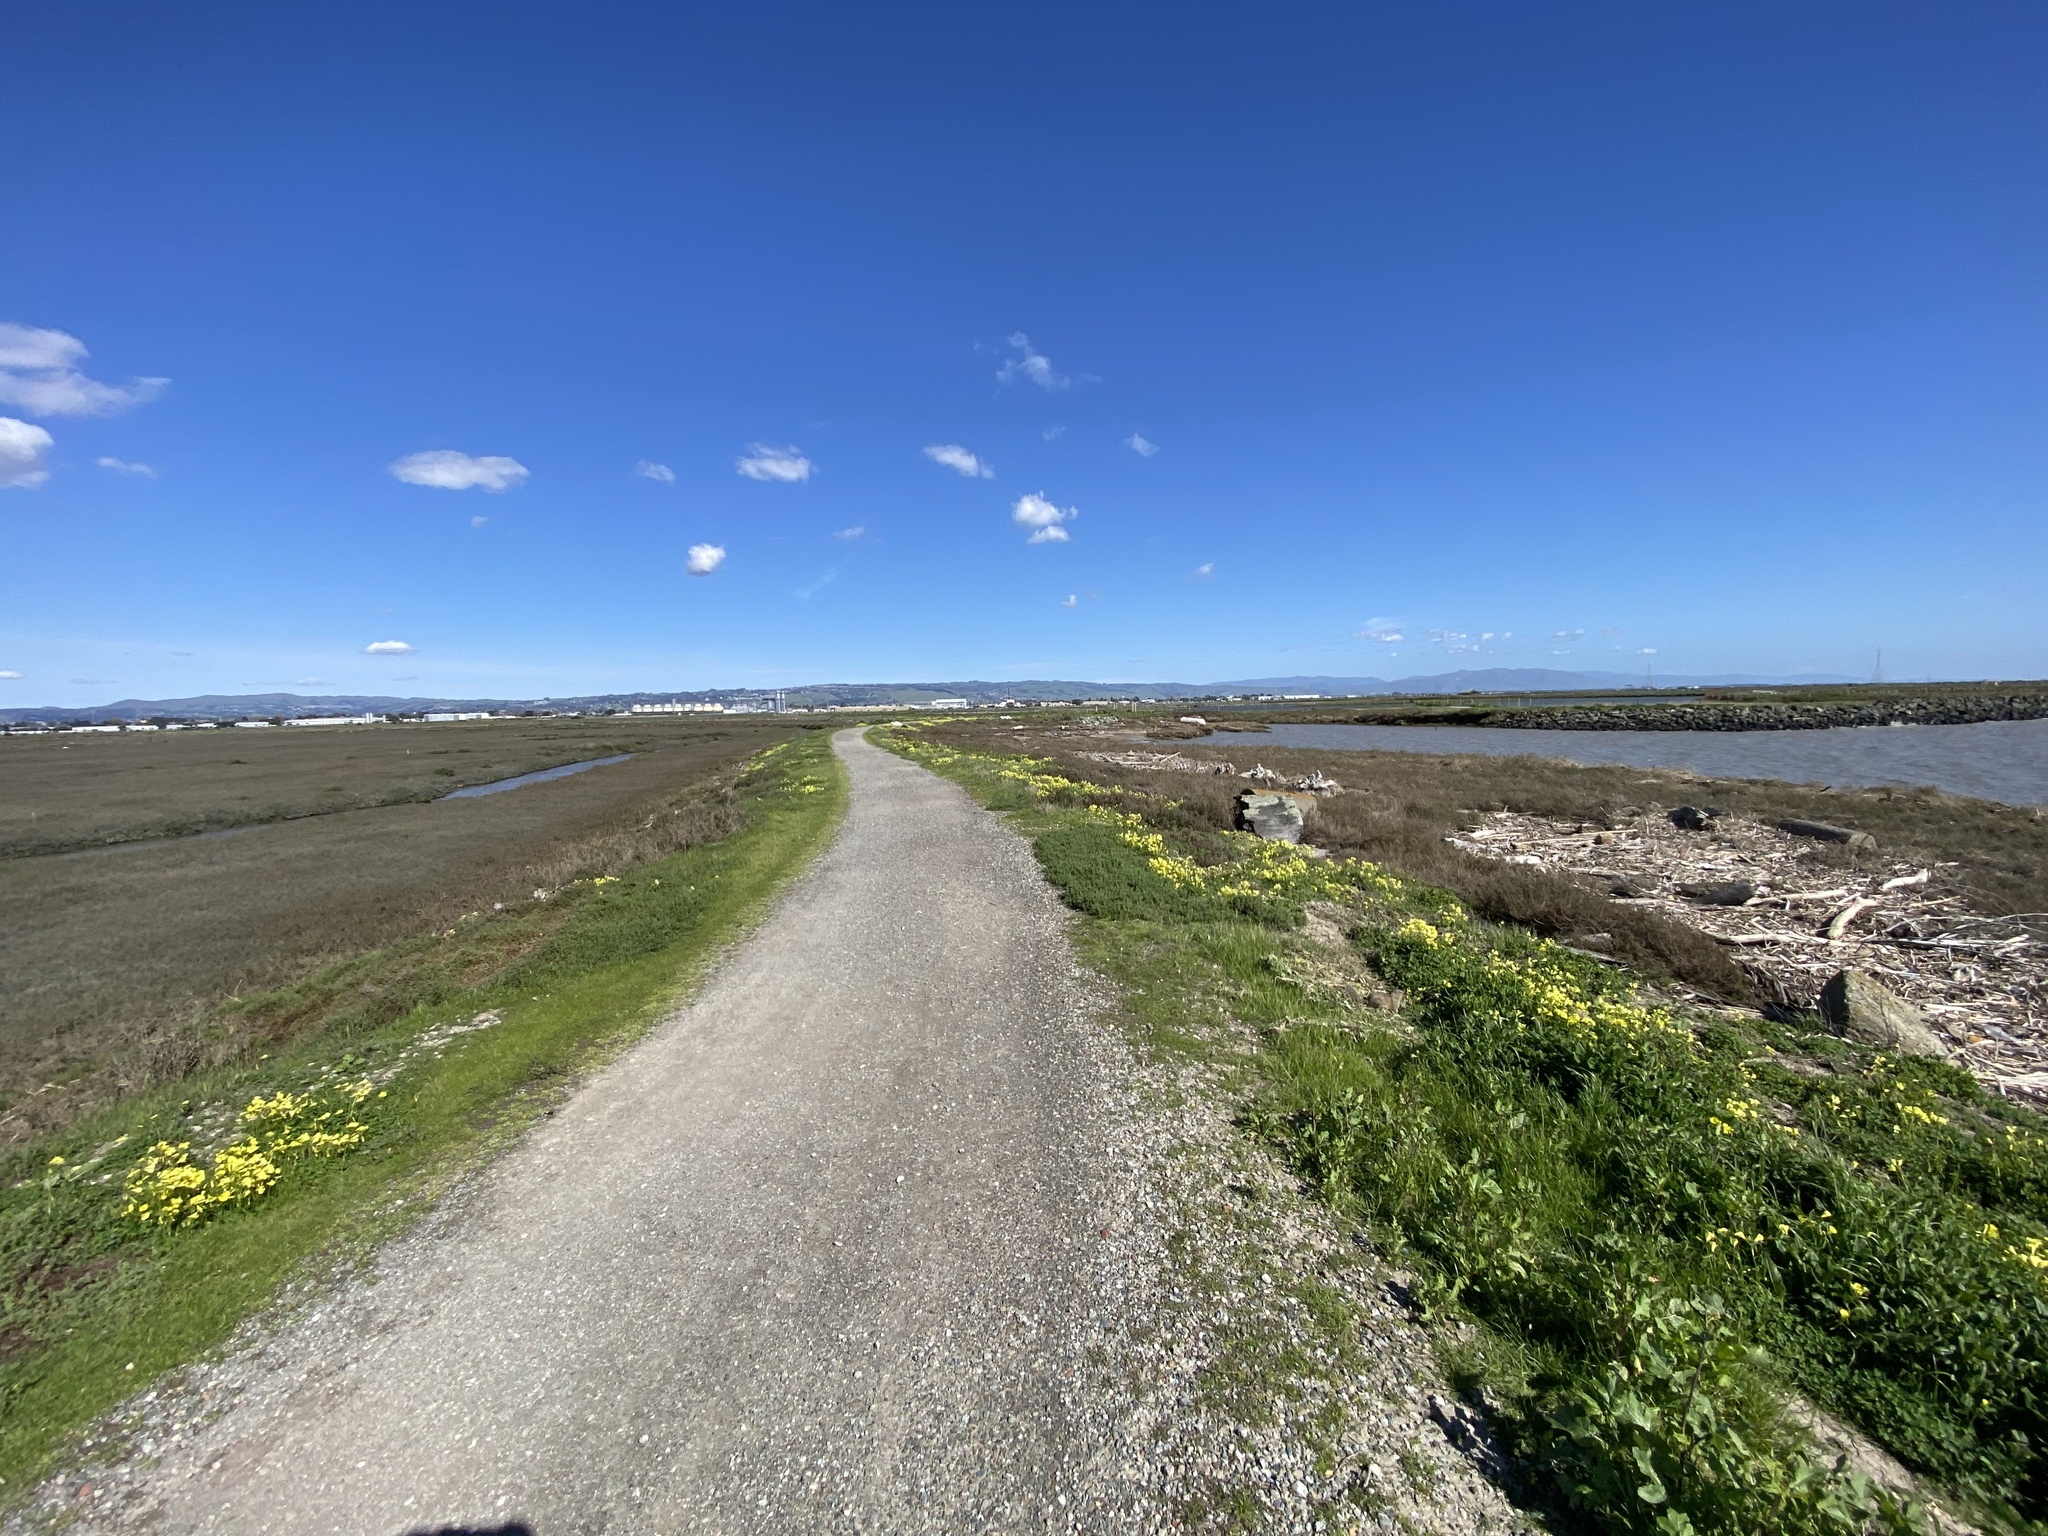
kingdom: Plantae
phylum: Tracheophyta
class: Magnoliopsida
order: Caryophyllales
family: Aizoaceae
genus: Tetragonia
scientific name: Tetragonia tetragonoides
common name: New zealand-spinach
